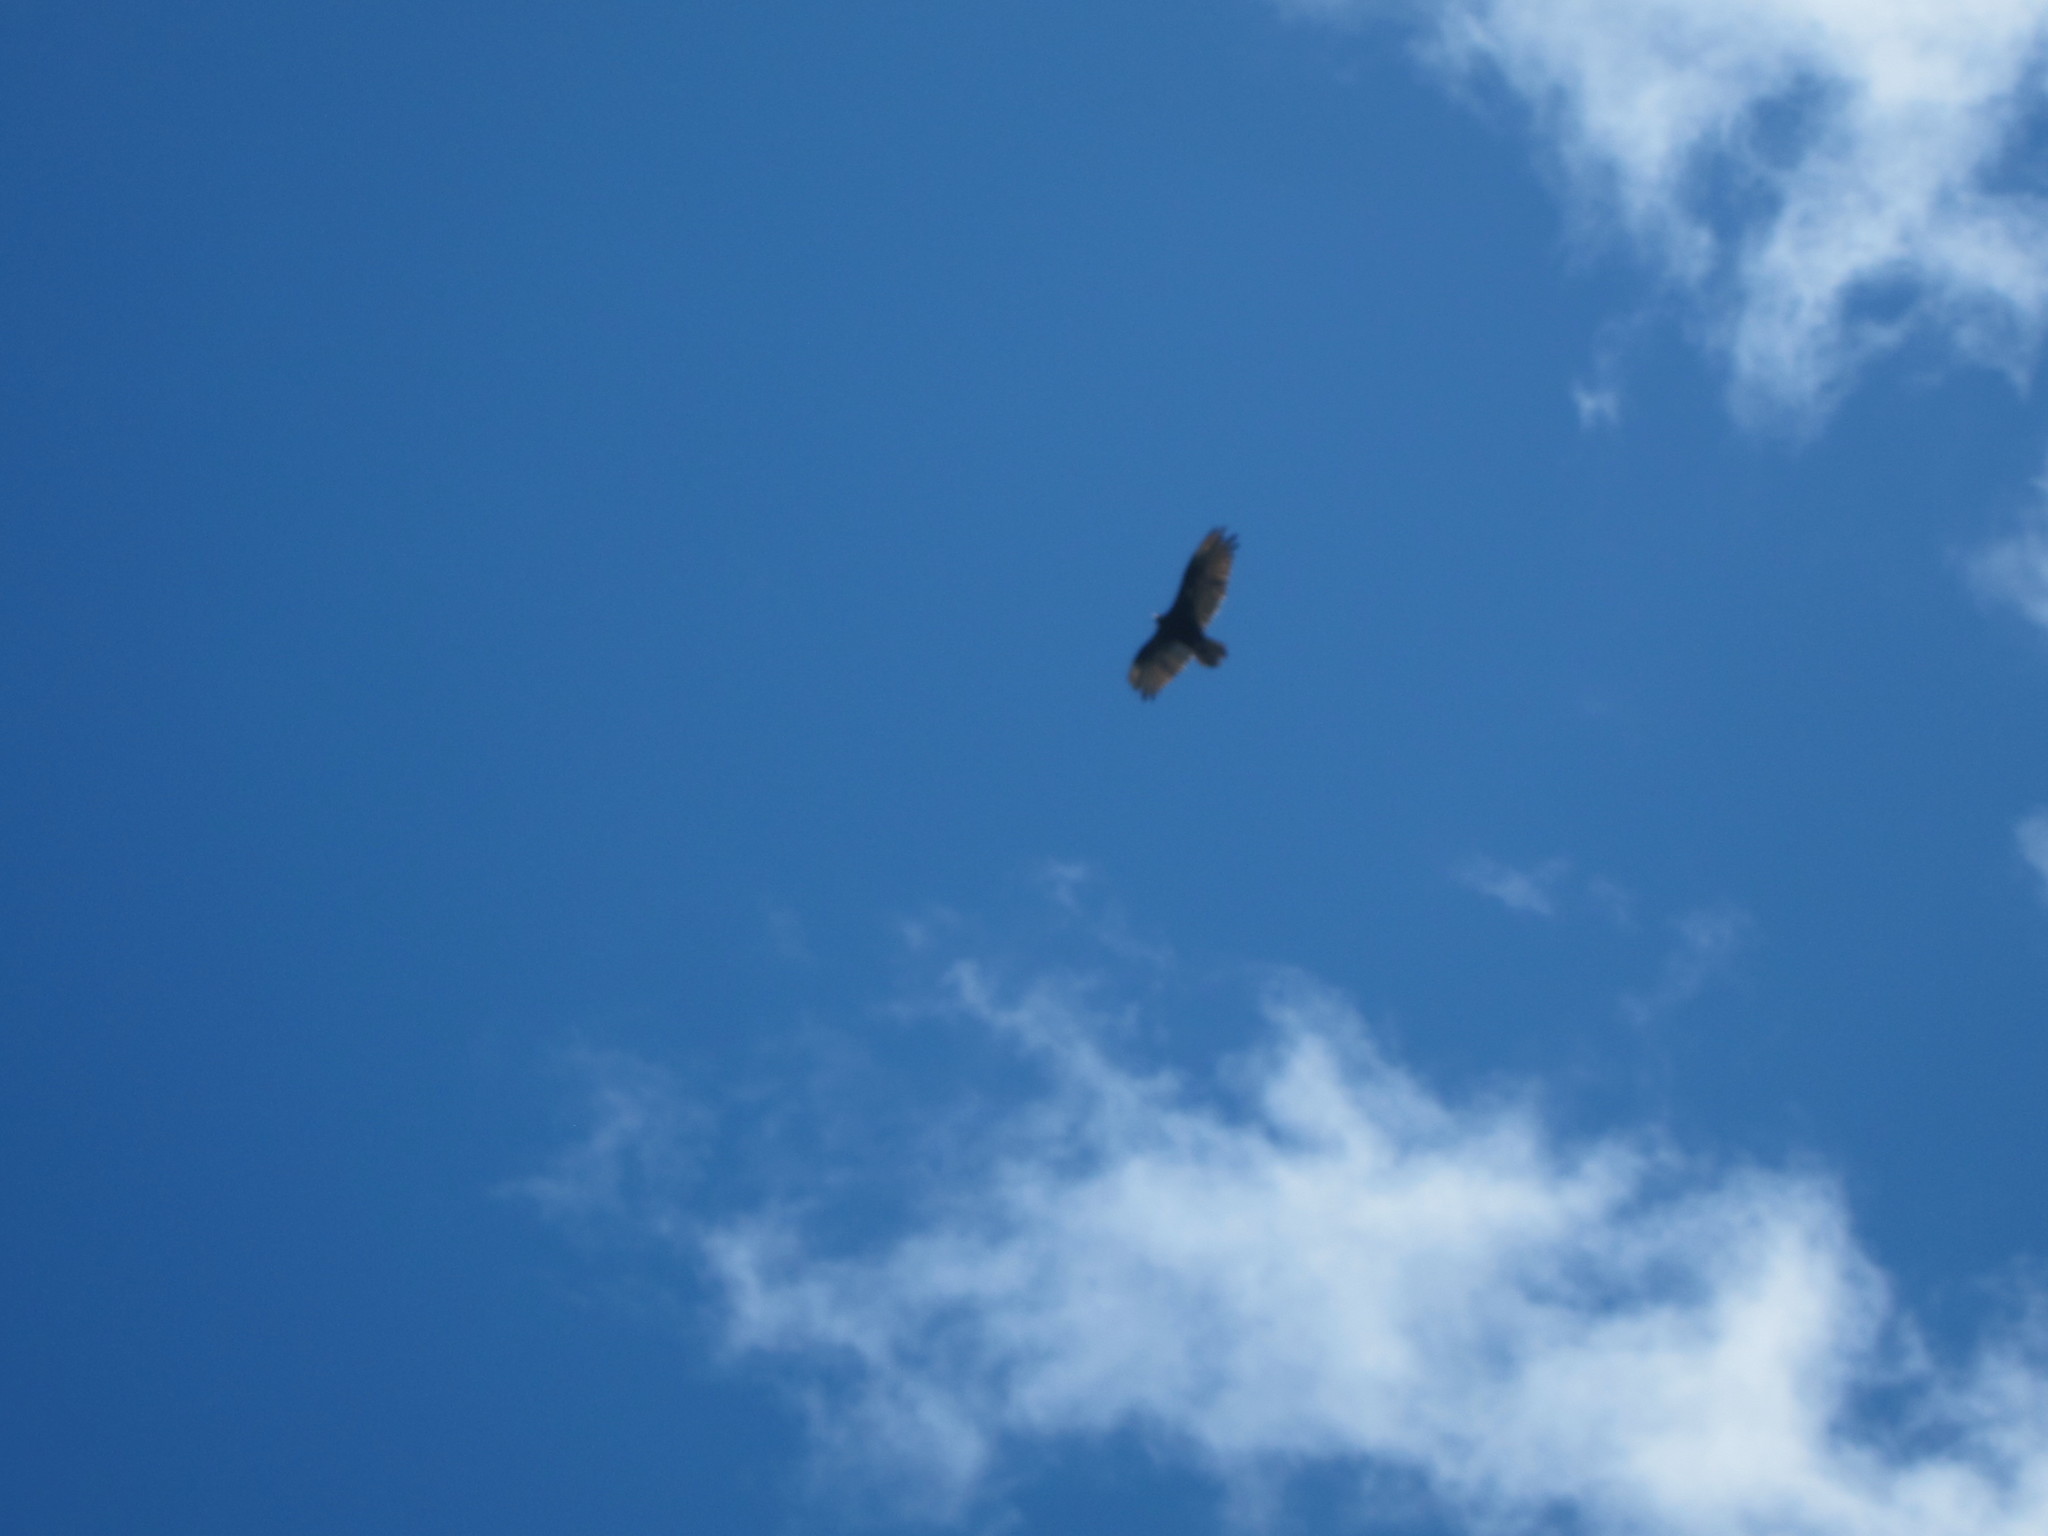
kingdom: Animalia
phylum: Chordata
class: Aves
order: Accipitriformes
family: Cathartidae
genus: Cathartes
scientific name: Cathartes aura
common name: Turkey vulture
